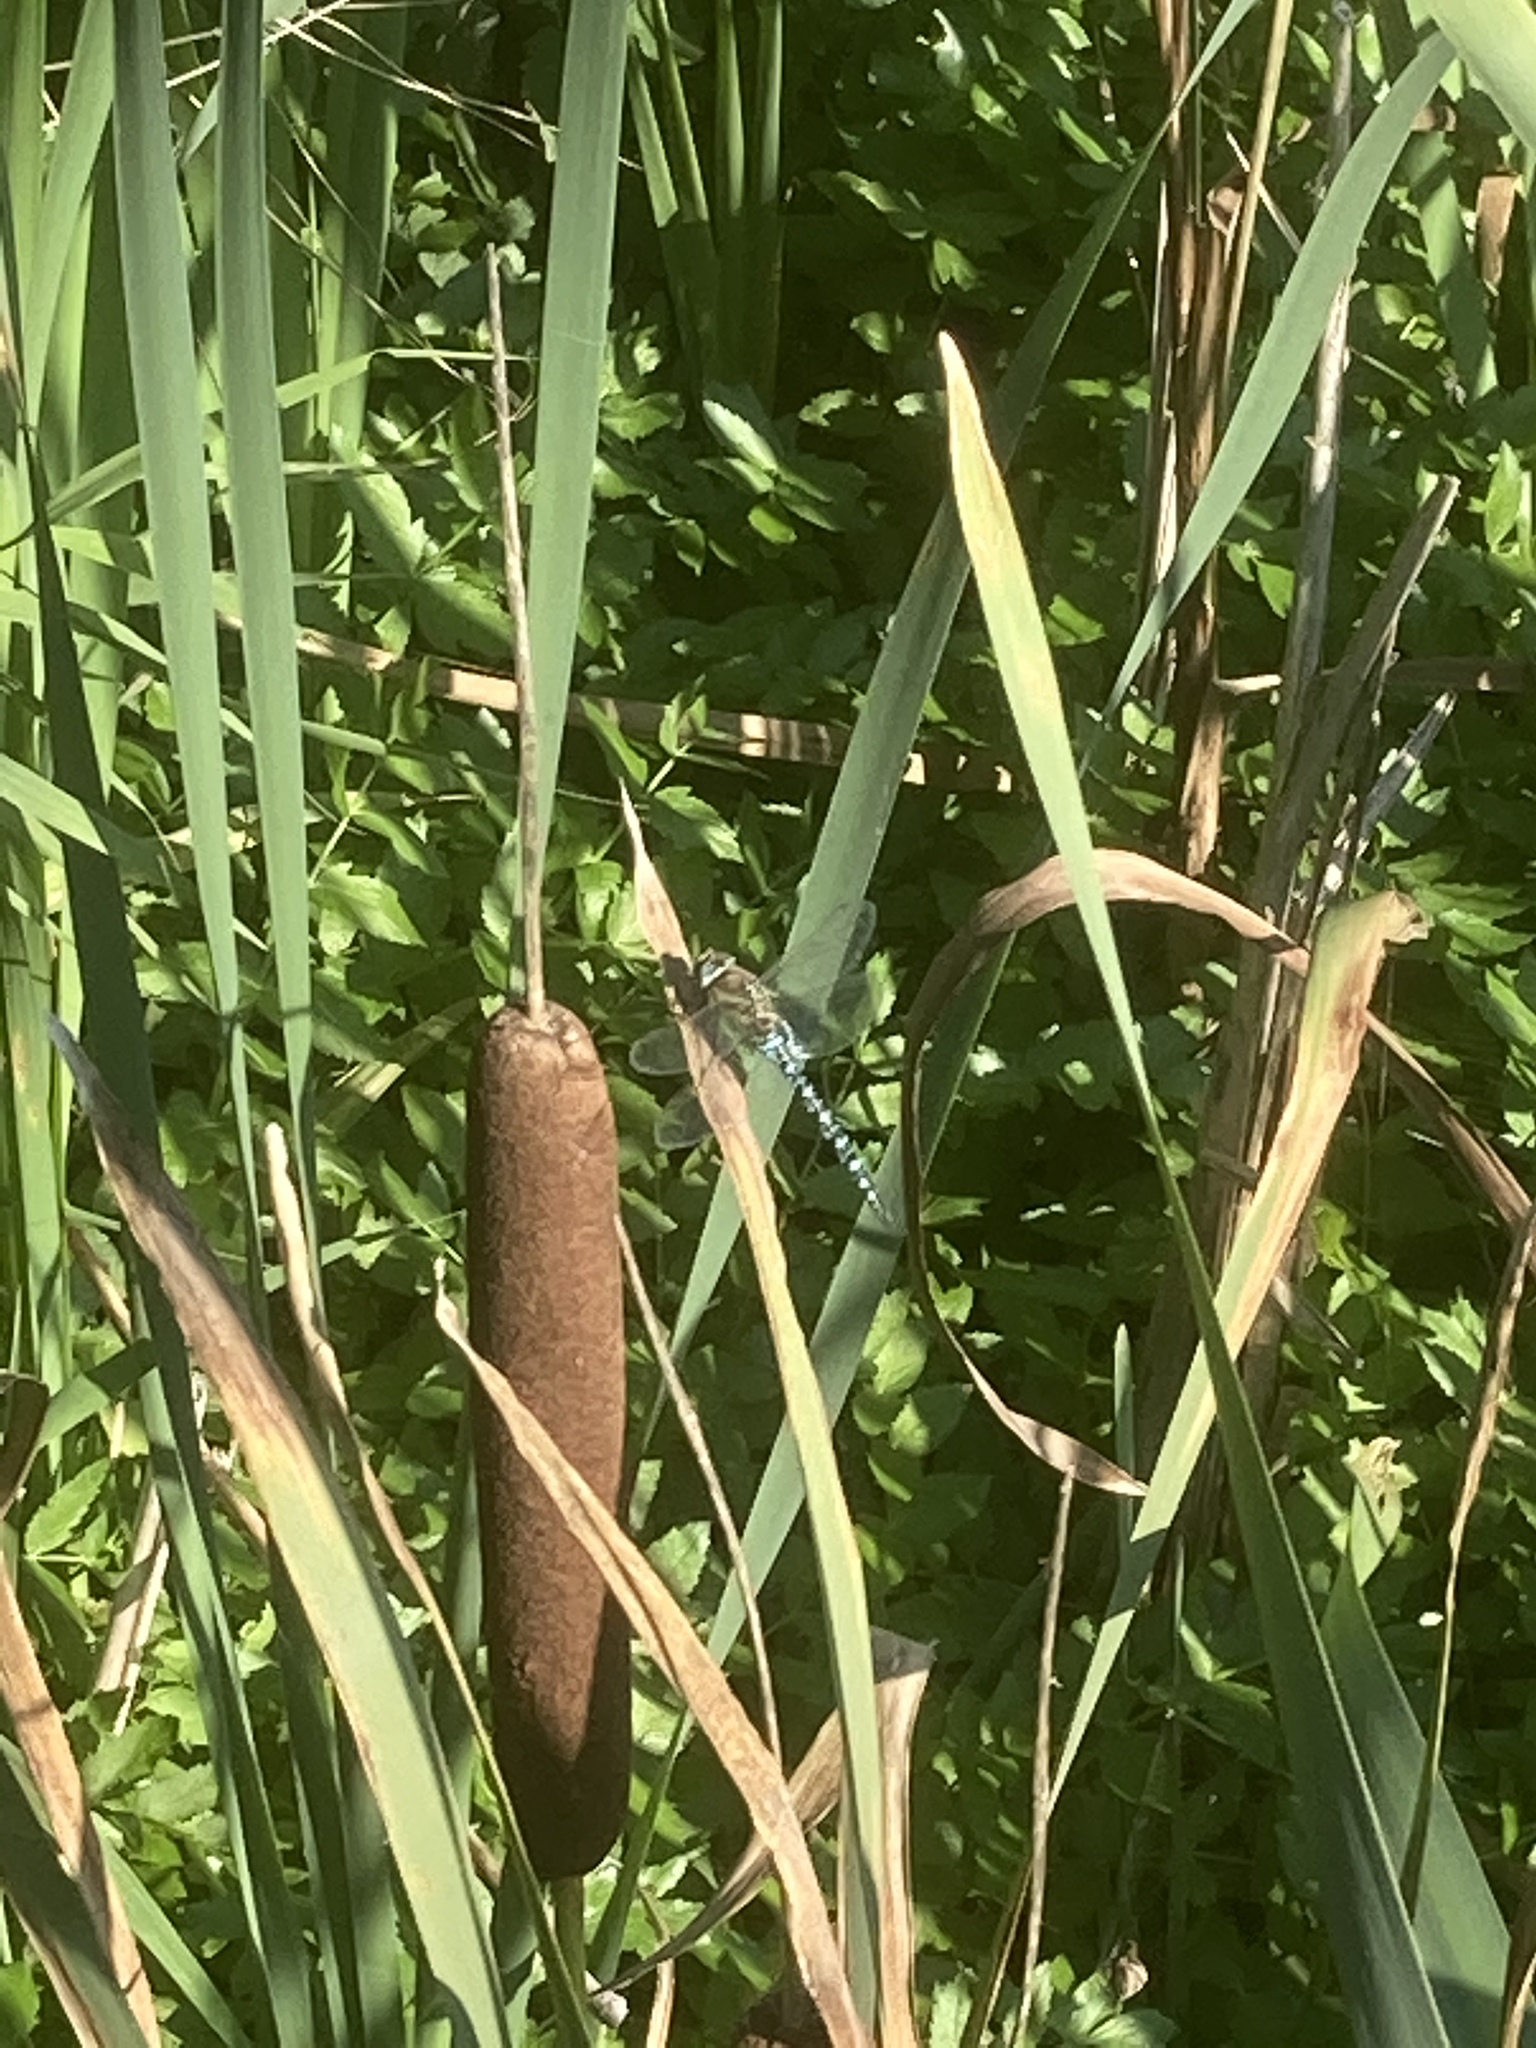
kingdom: Plantae
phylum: Tracheophyta
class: Liliopsida
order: Poales
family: Typhaceae
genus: Typha
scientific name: Typha latifolia
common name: Broadleaf cattail
